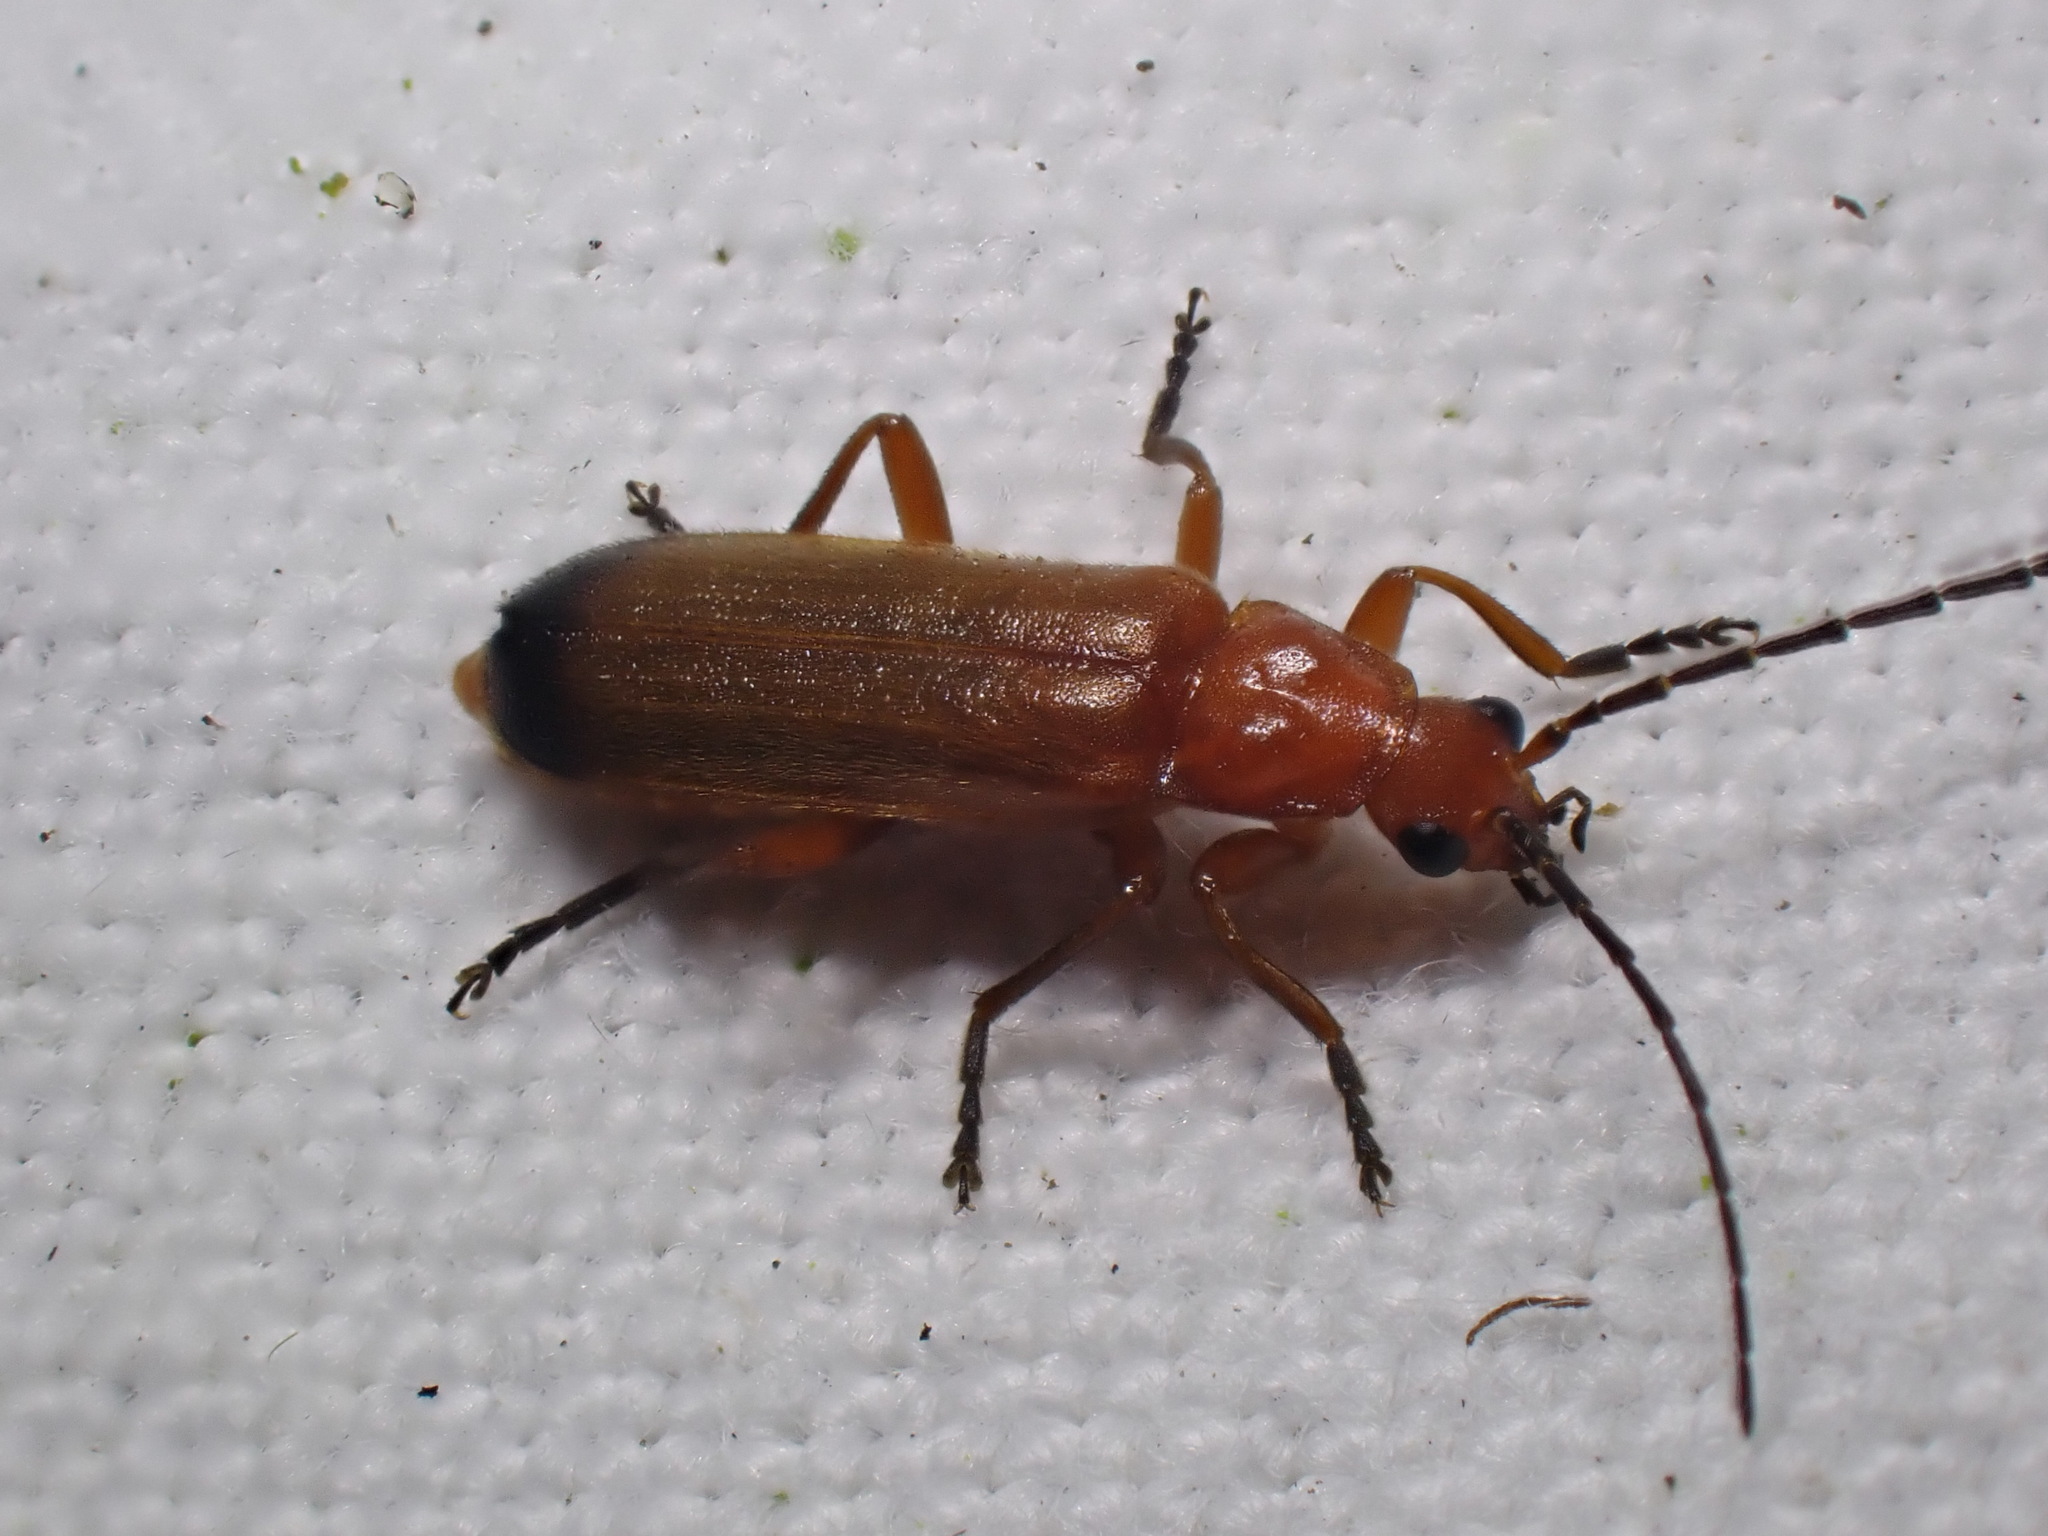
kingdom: Animalia
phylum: Arthropoda
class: Insecta
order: Coleoptera
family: Cantharidae
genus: Rhagonycha
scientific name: Rhagonycha fulva
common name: Common red soldier beetle
